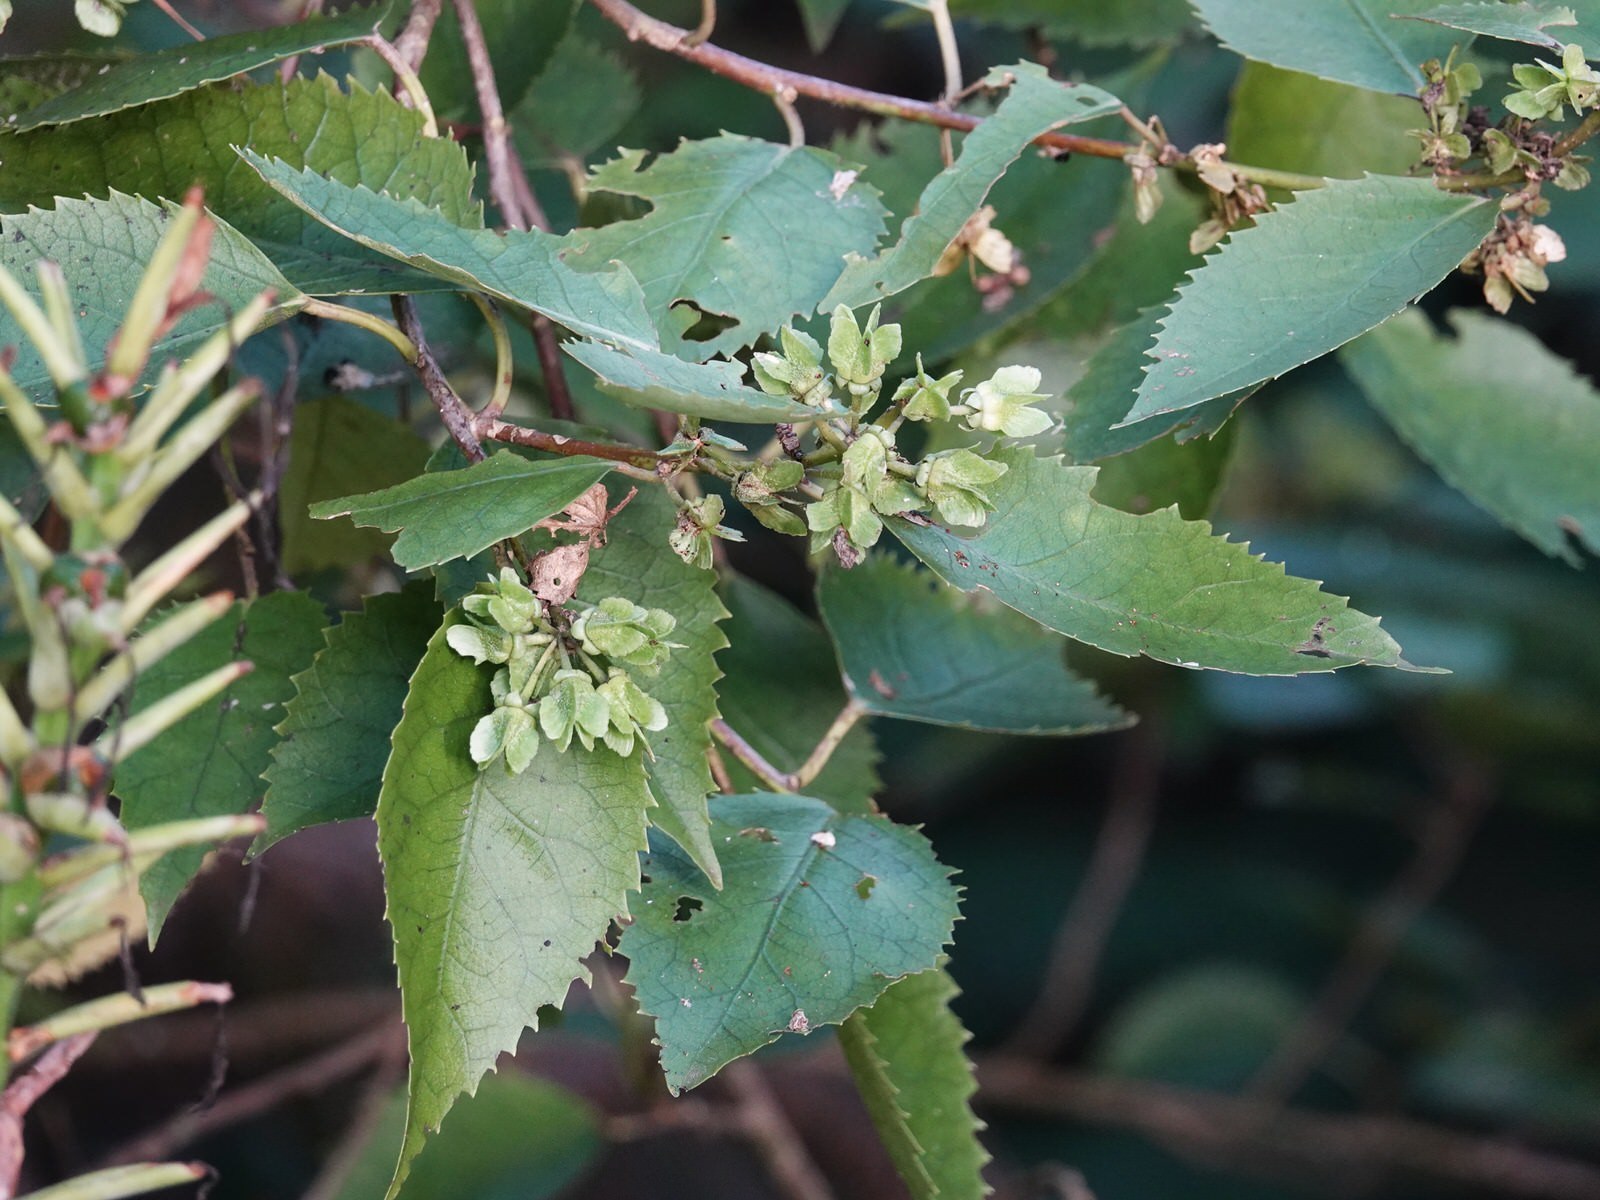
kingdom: Plantae
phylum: Tracheophyta
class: Magnoliopsida
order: Malvales
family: Malvaceae
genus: Hoheria
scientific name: Hoheria populnea
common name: Lacebark
